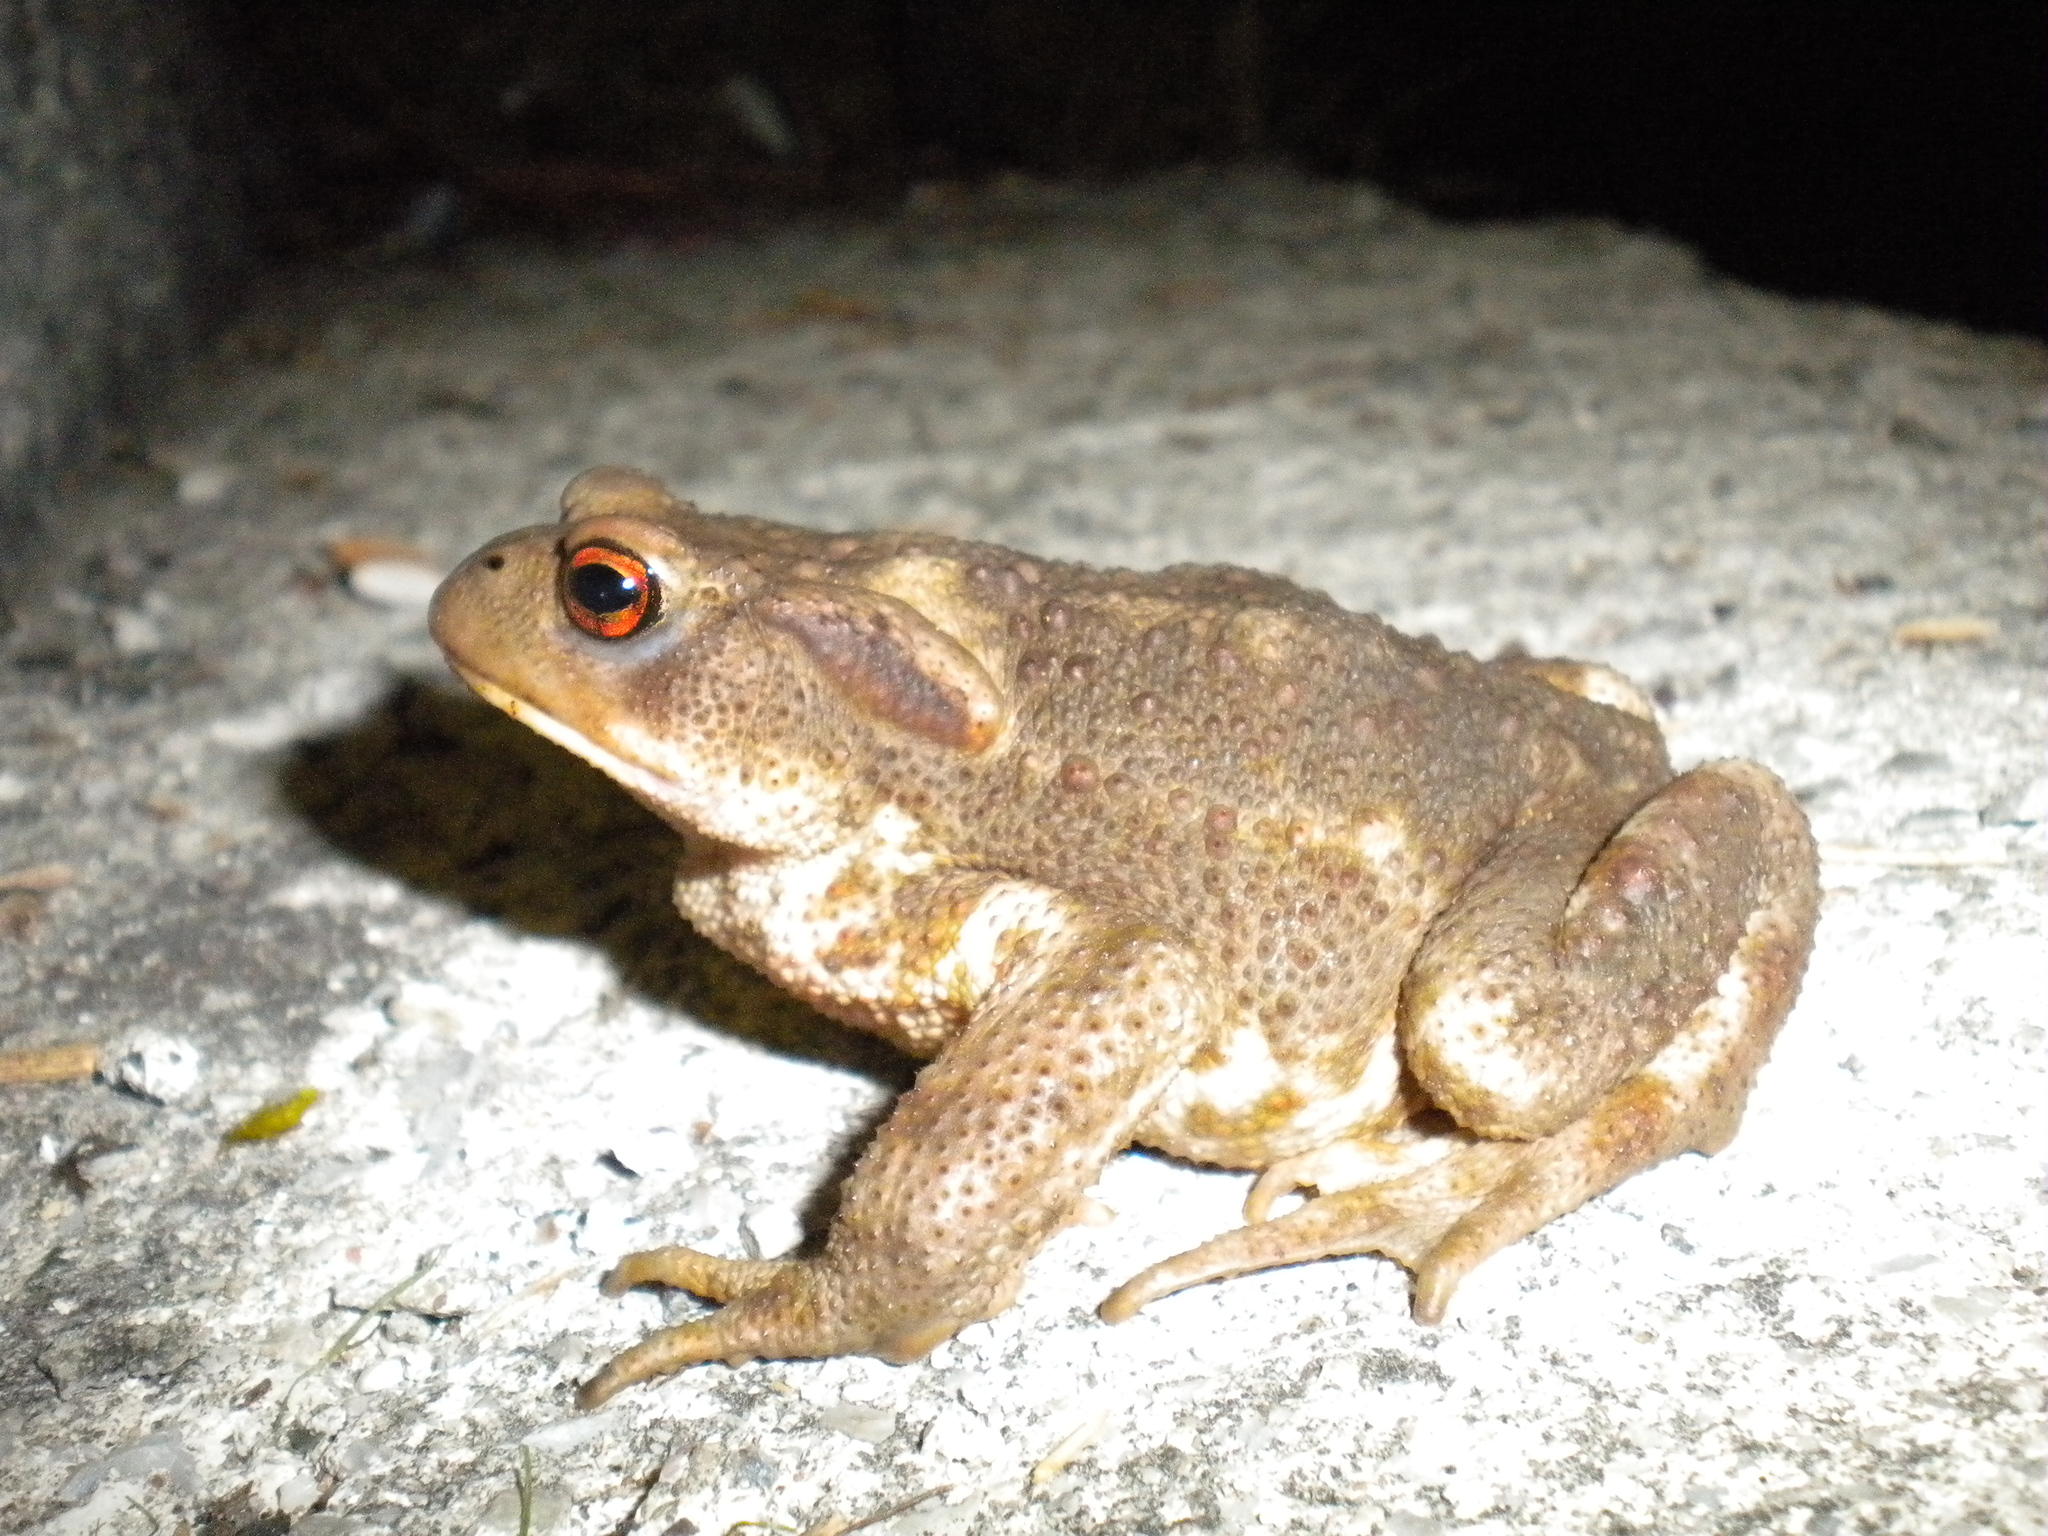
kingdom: Animalia
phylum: Chordata
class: Amphibia
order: Anura
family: Bufonidae
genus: Bufo
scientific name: Bufo bufo
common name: Common toad
